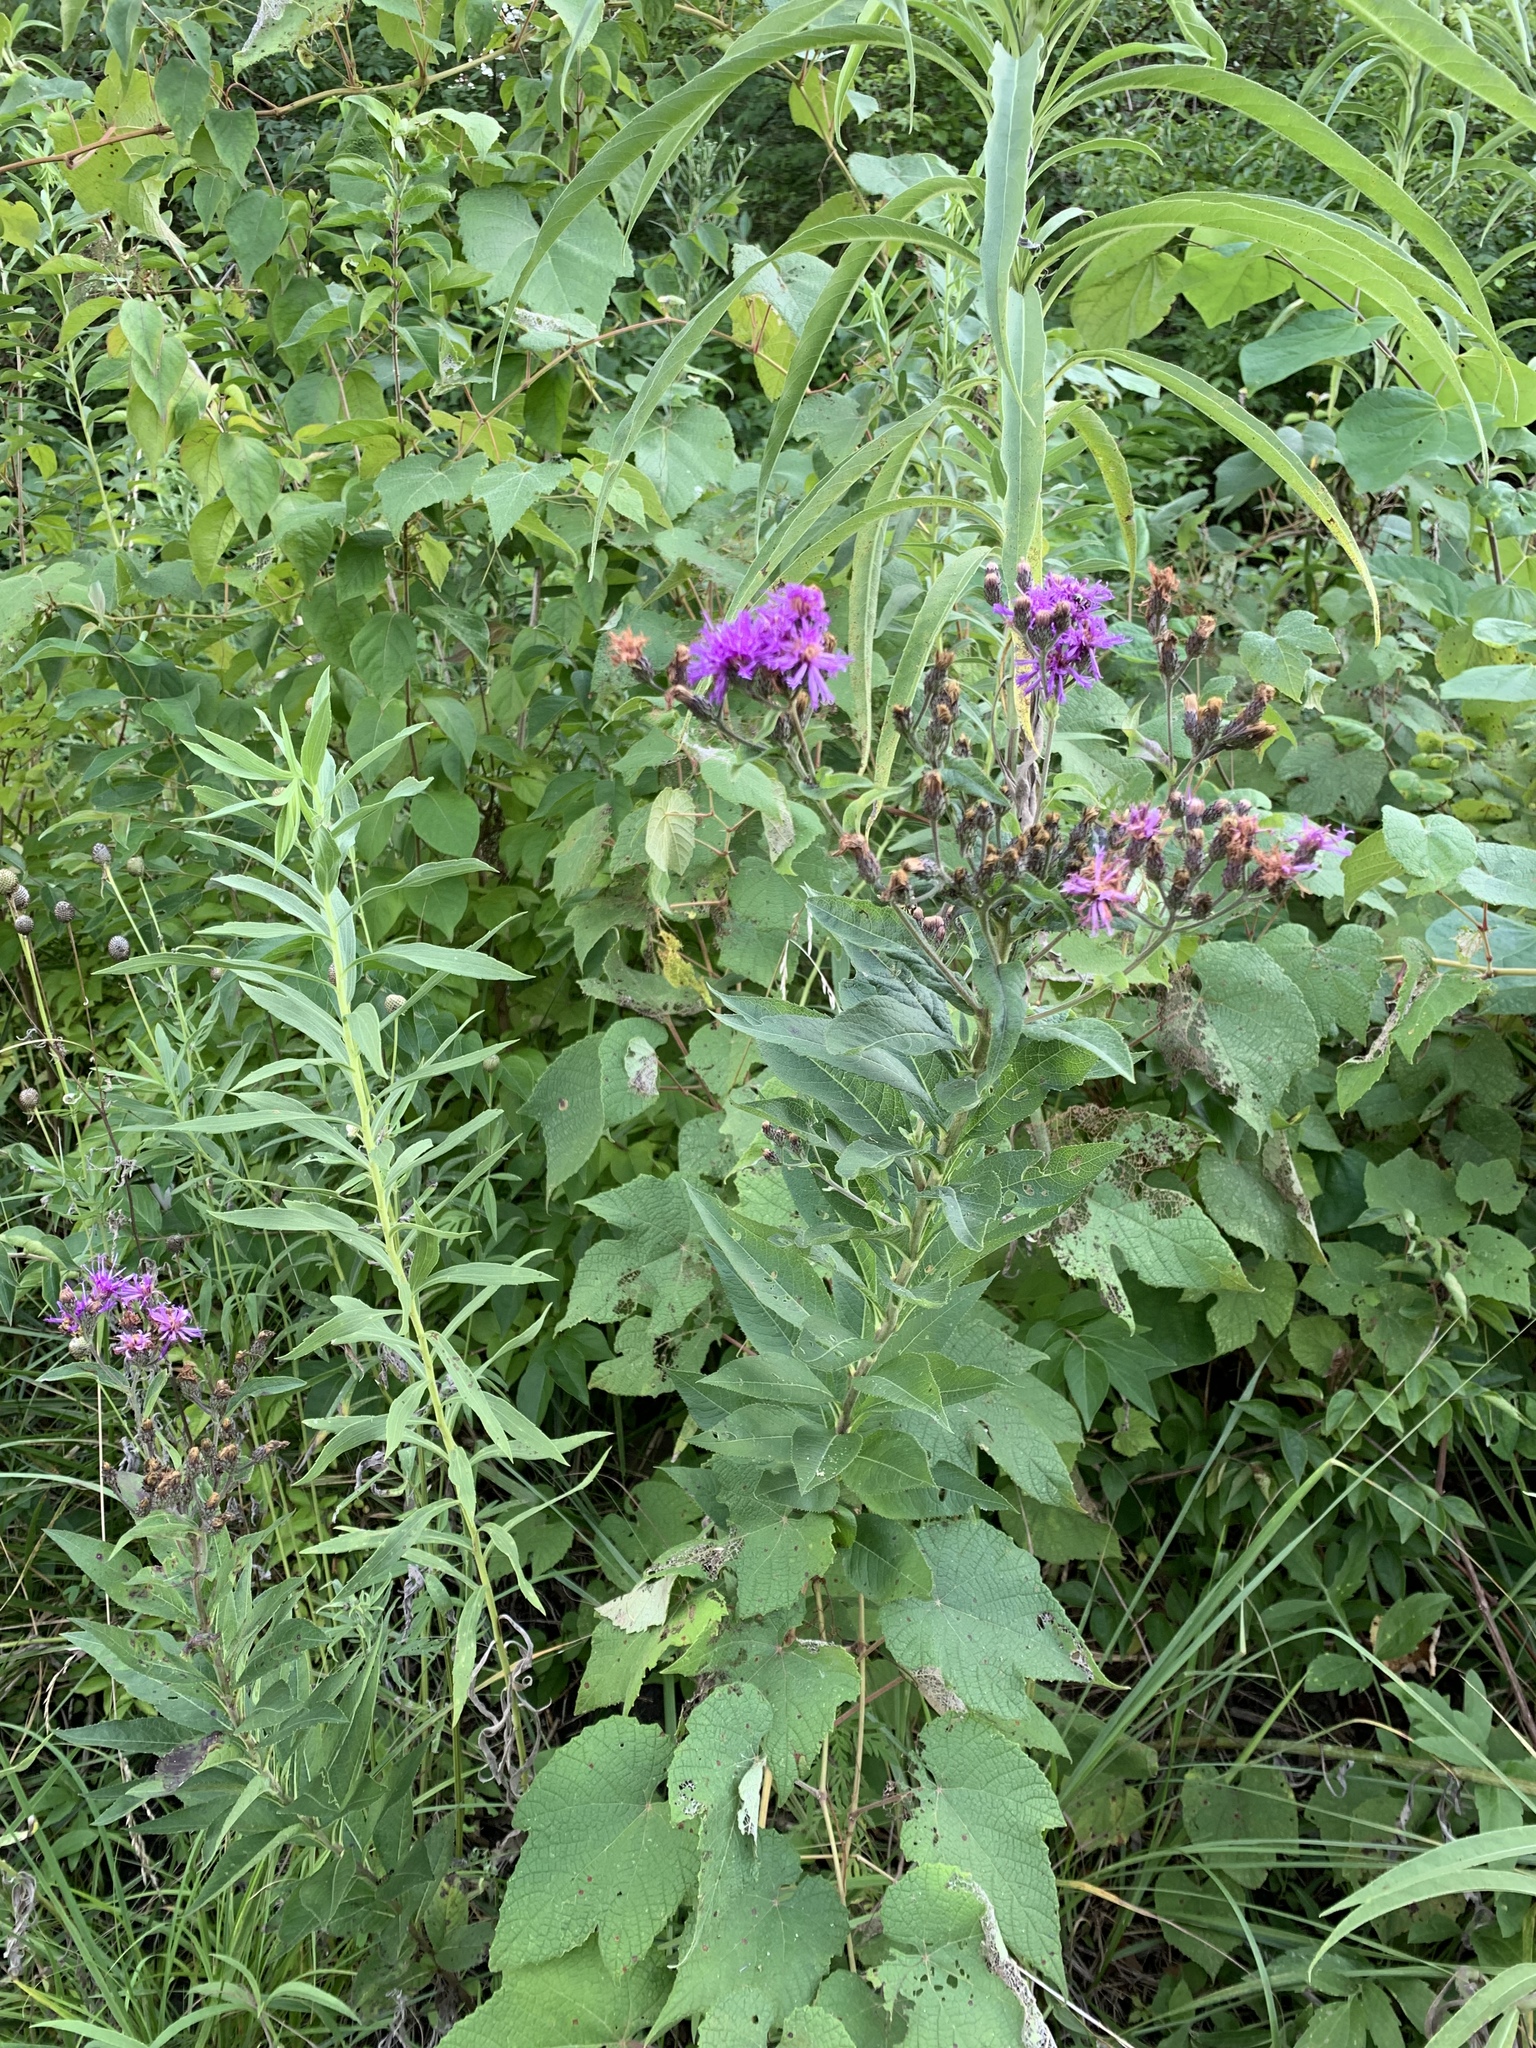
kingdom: Plantae
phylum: Tracheophyta
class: Magnoliopsida
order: Asterales
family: Asteraceae
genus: Vernonia
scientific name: Vernonia baldwinii
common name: Western ironweed
